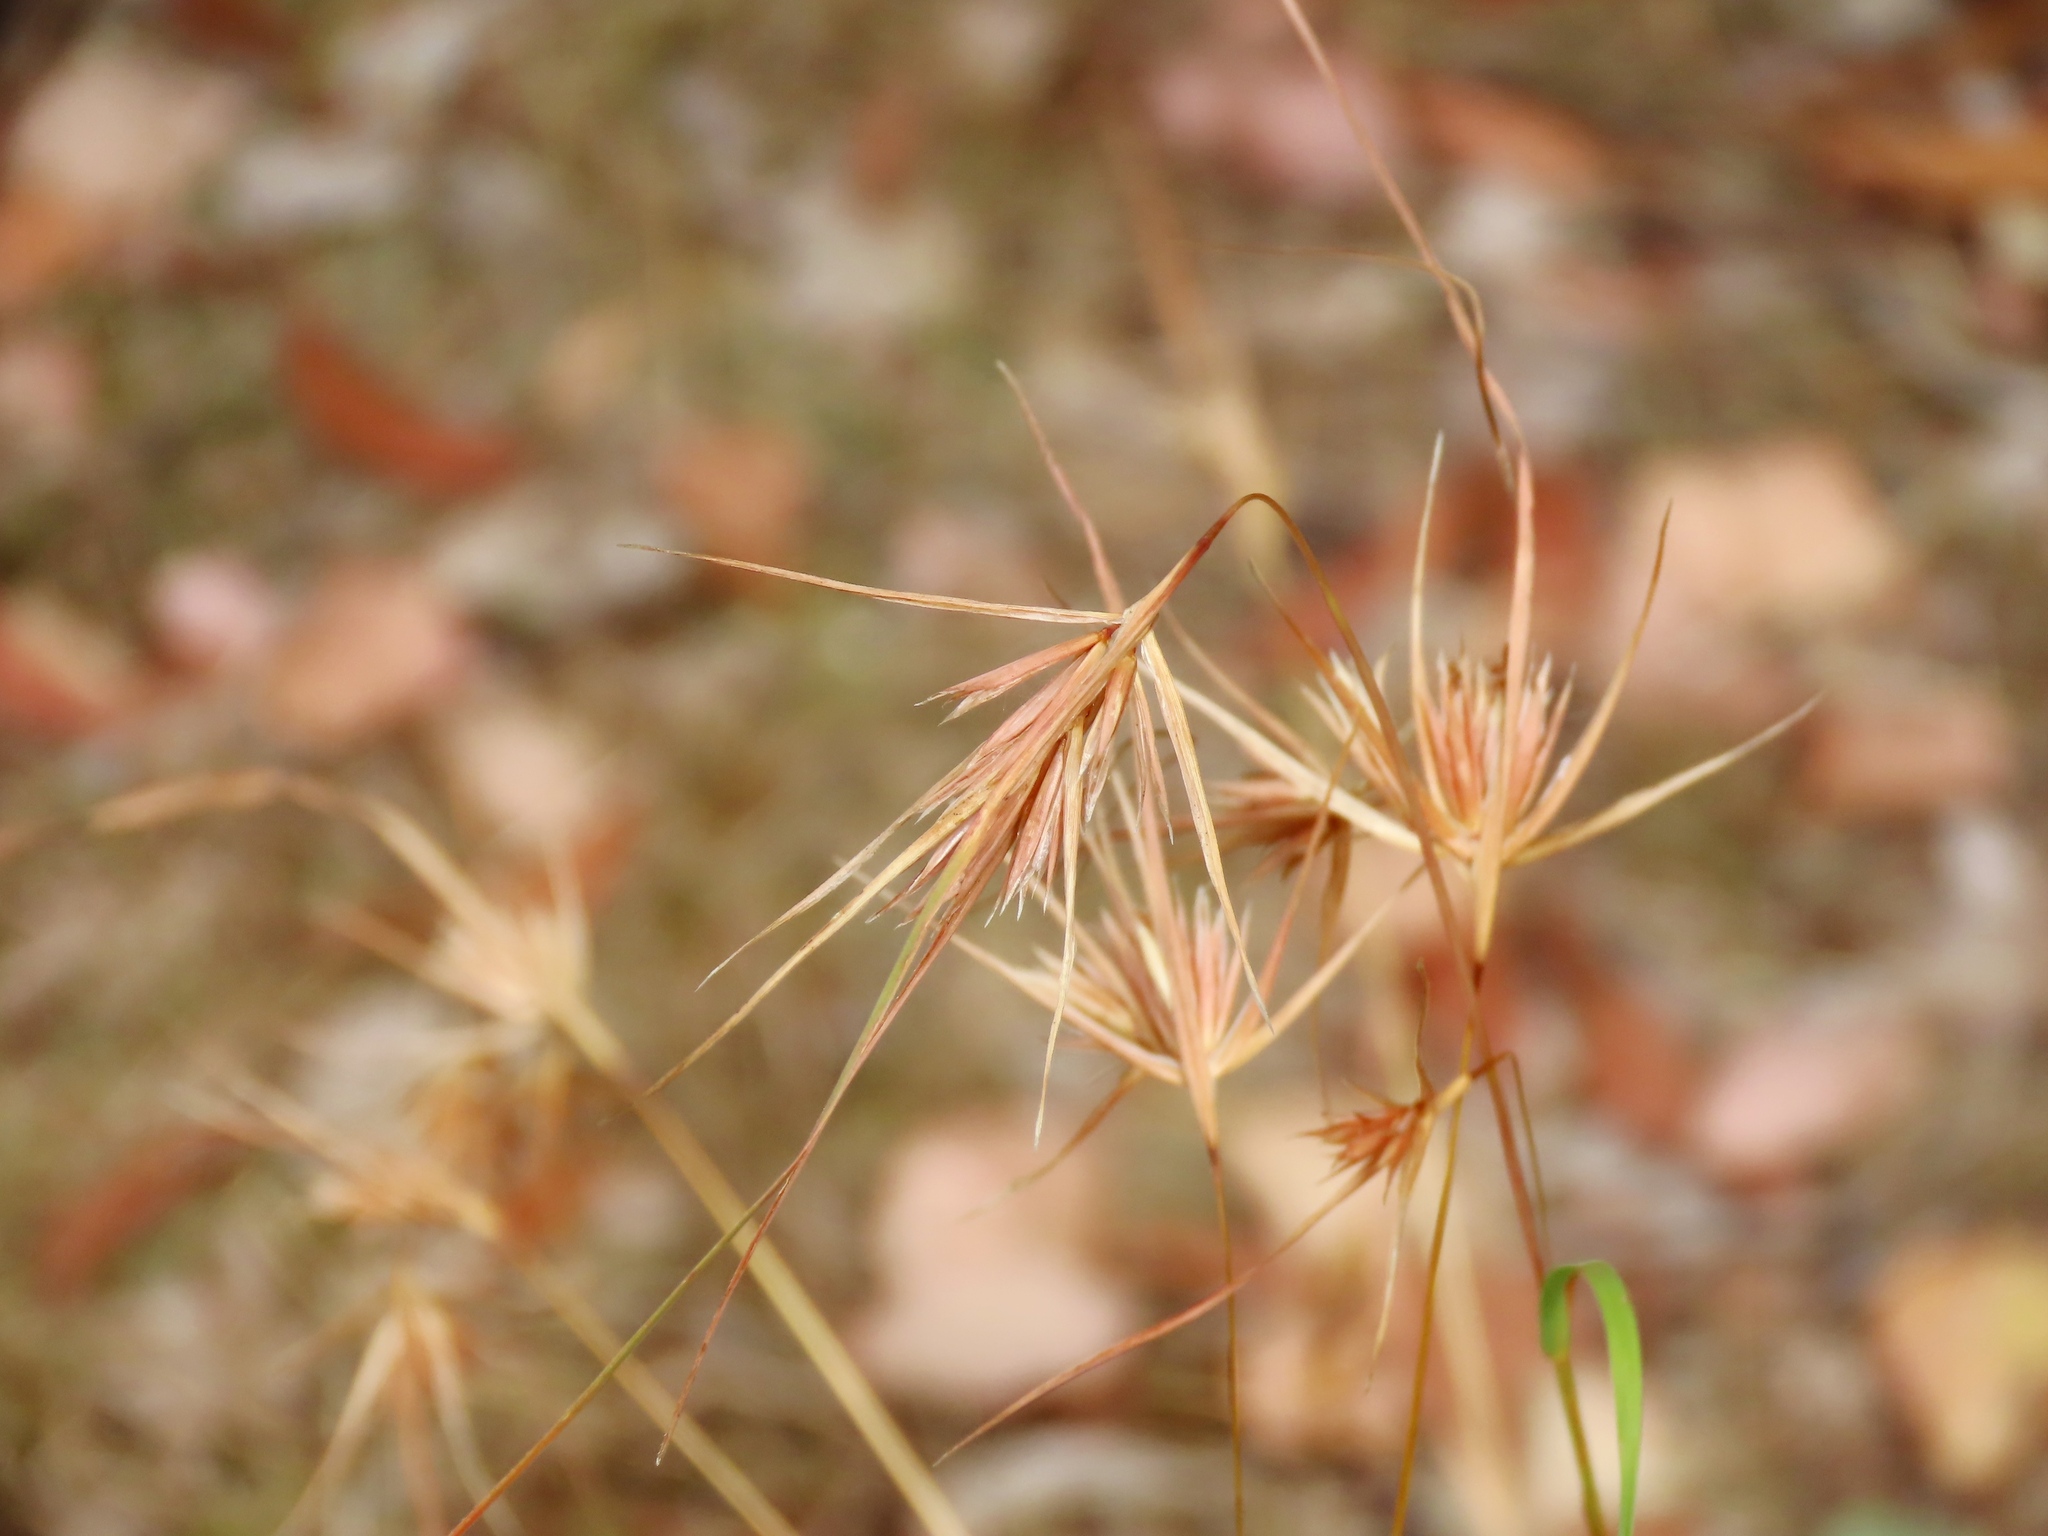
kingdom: Plantae
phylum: Tracheophyta
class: Liliopsida
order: Poales
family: Poaceae
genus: Themeda
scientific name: Themeda triandra
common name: Kangaroo grass
